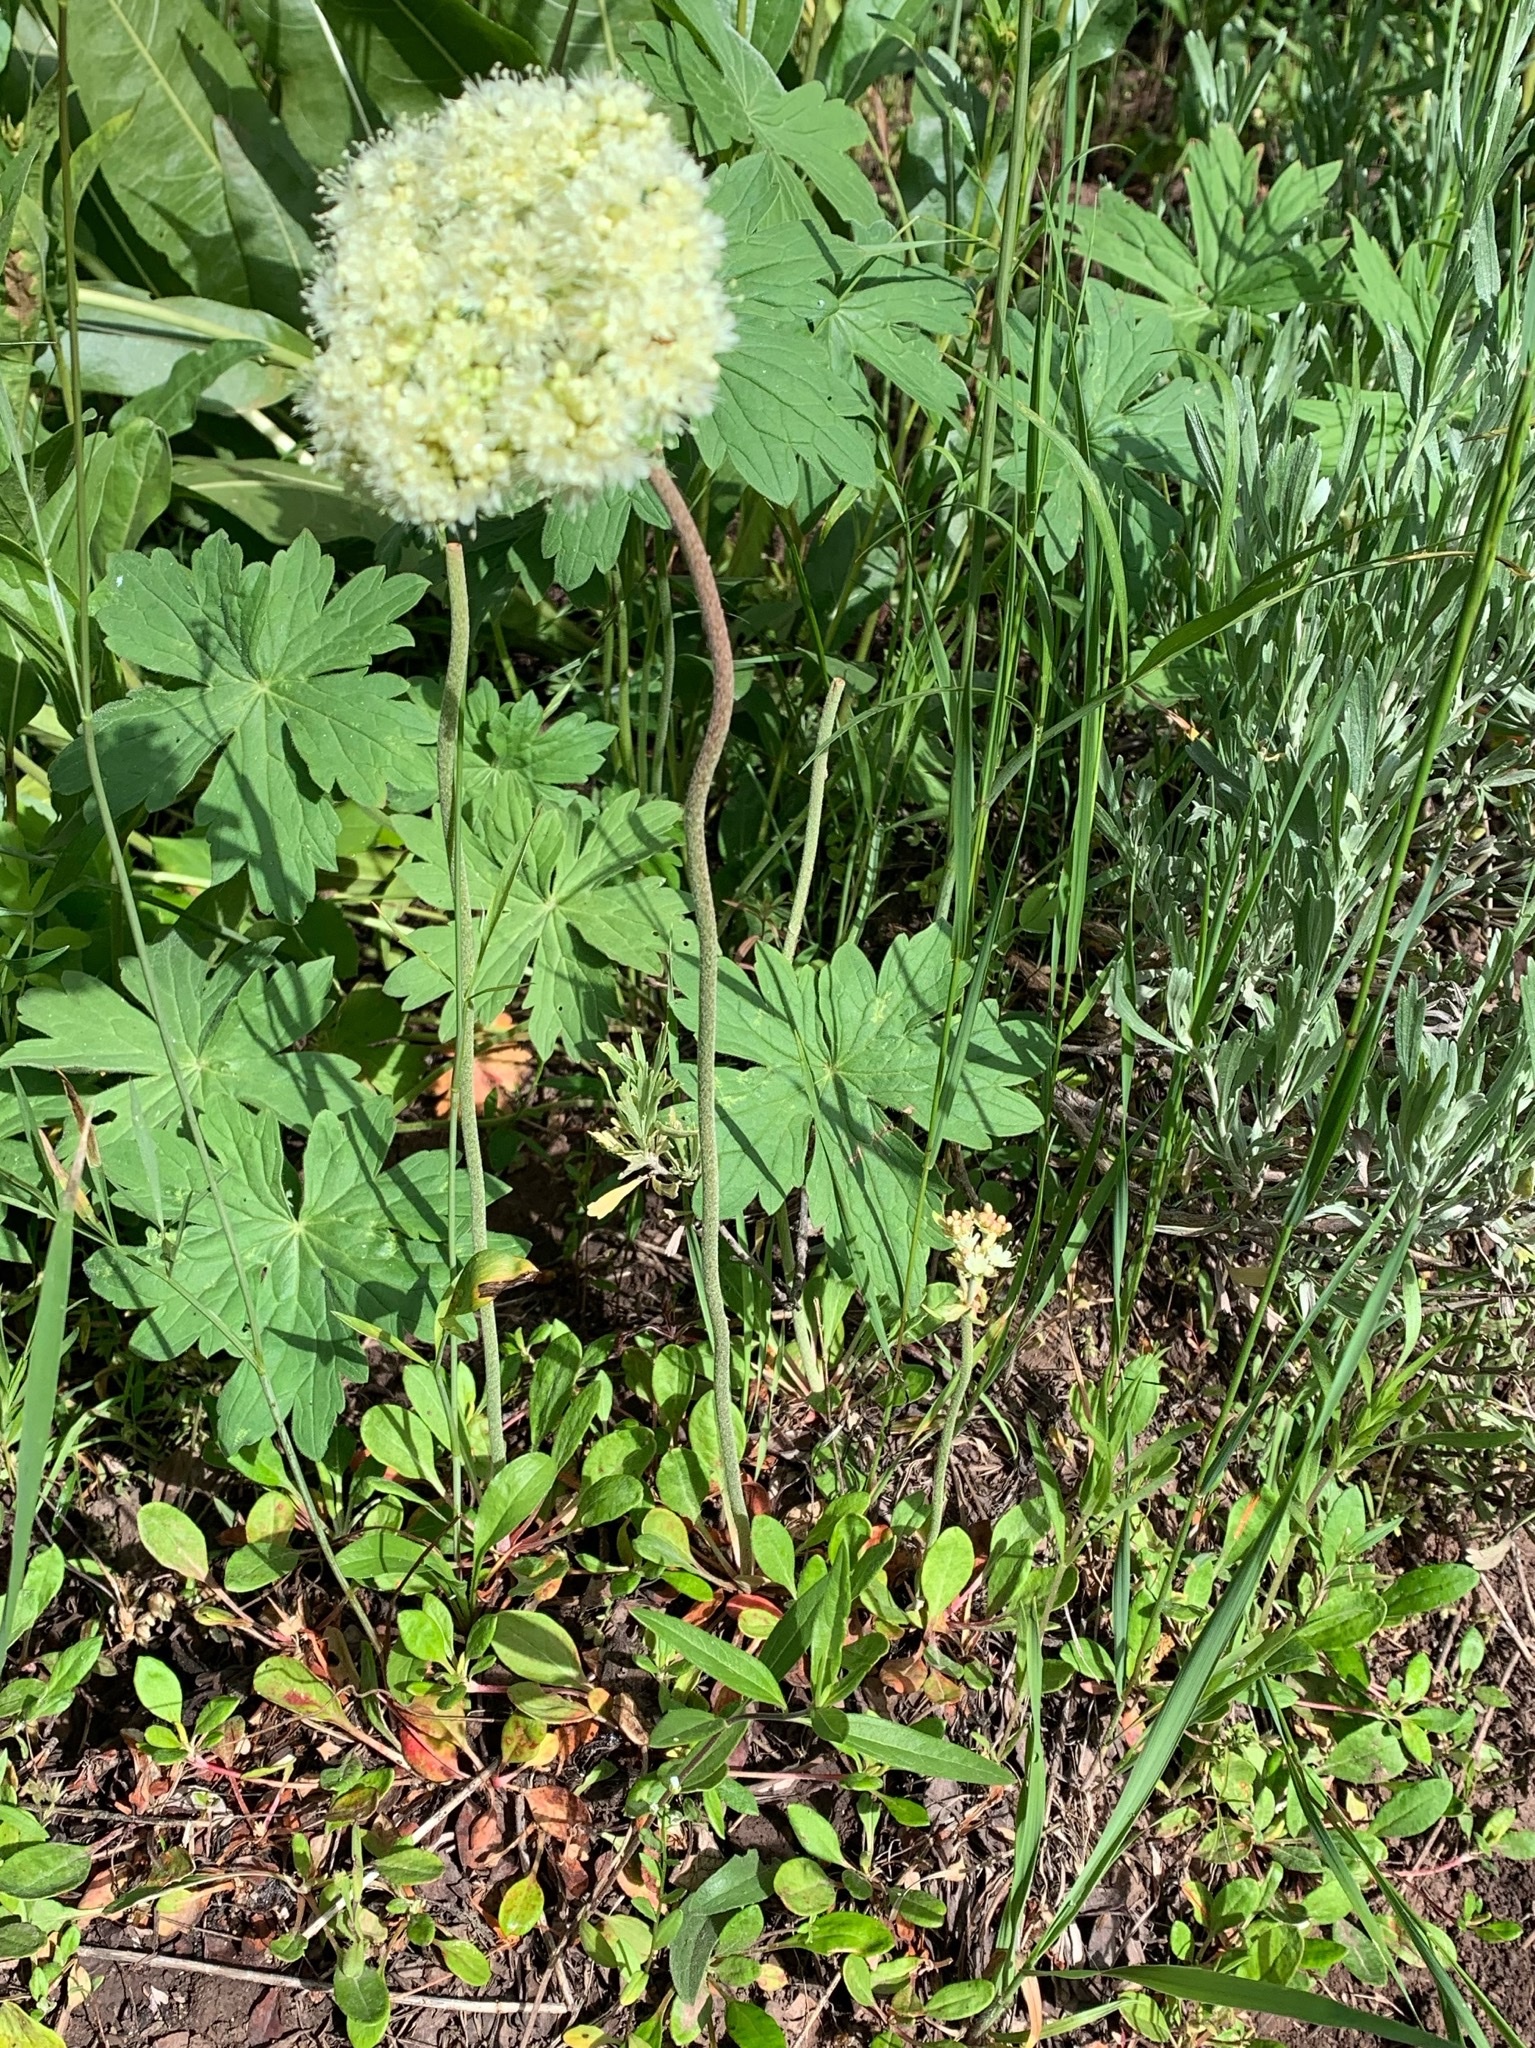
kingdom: Plantae
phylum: Tracheophyta
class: Magnoliopsida
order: Caryophyllales
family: Polygonaceae
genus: Eriogonum
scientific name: Eriogonum umbellatum
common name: Sulfur-buckwheat
